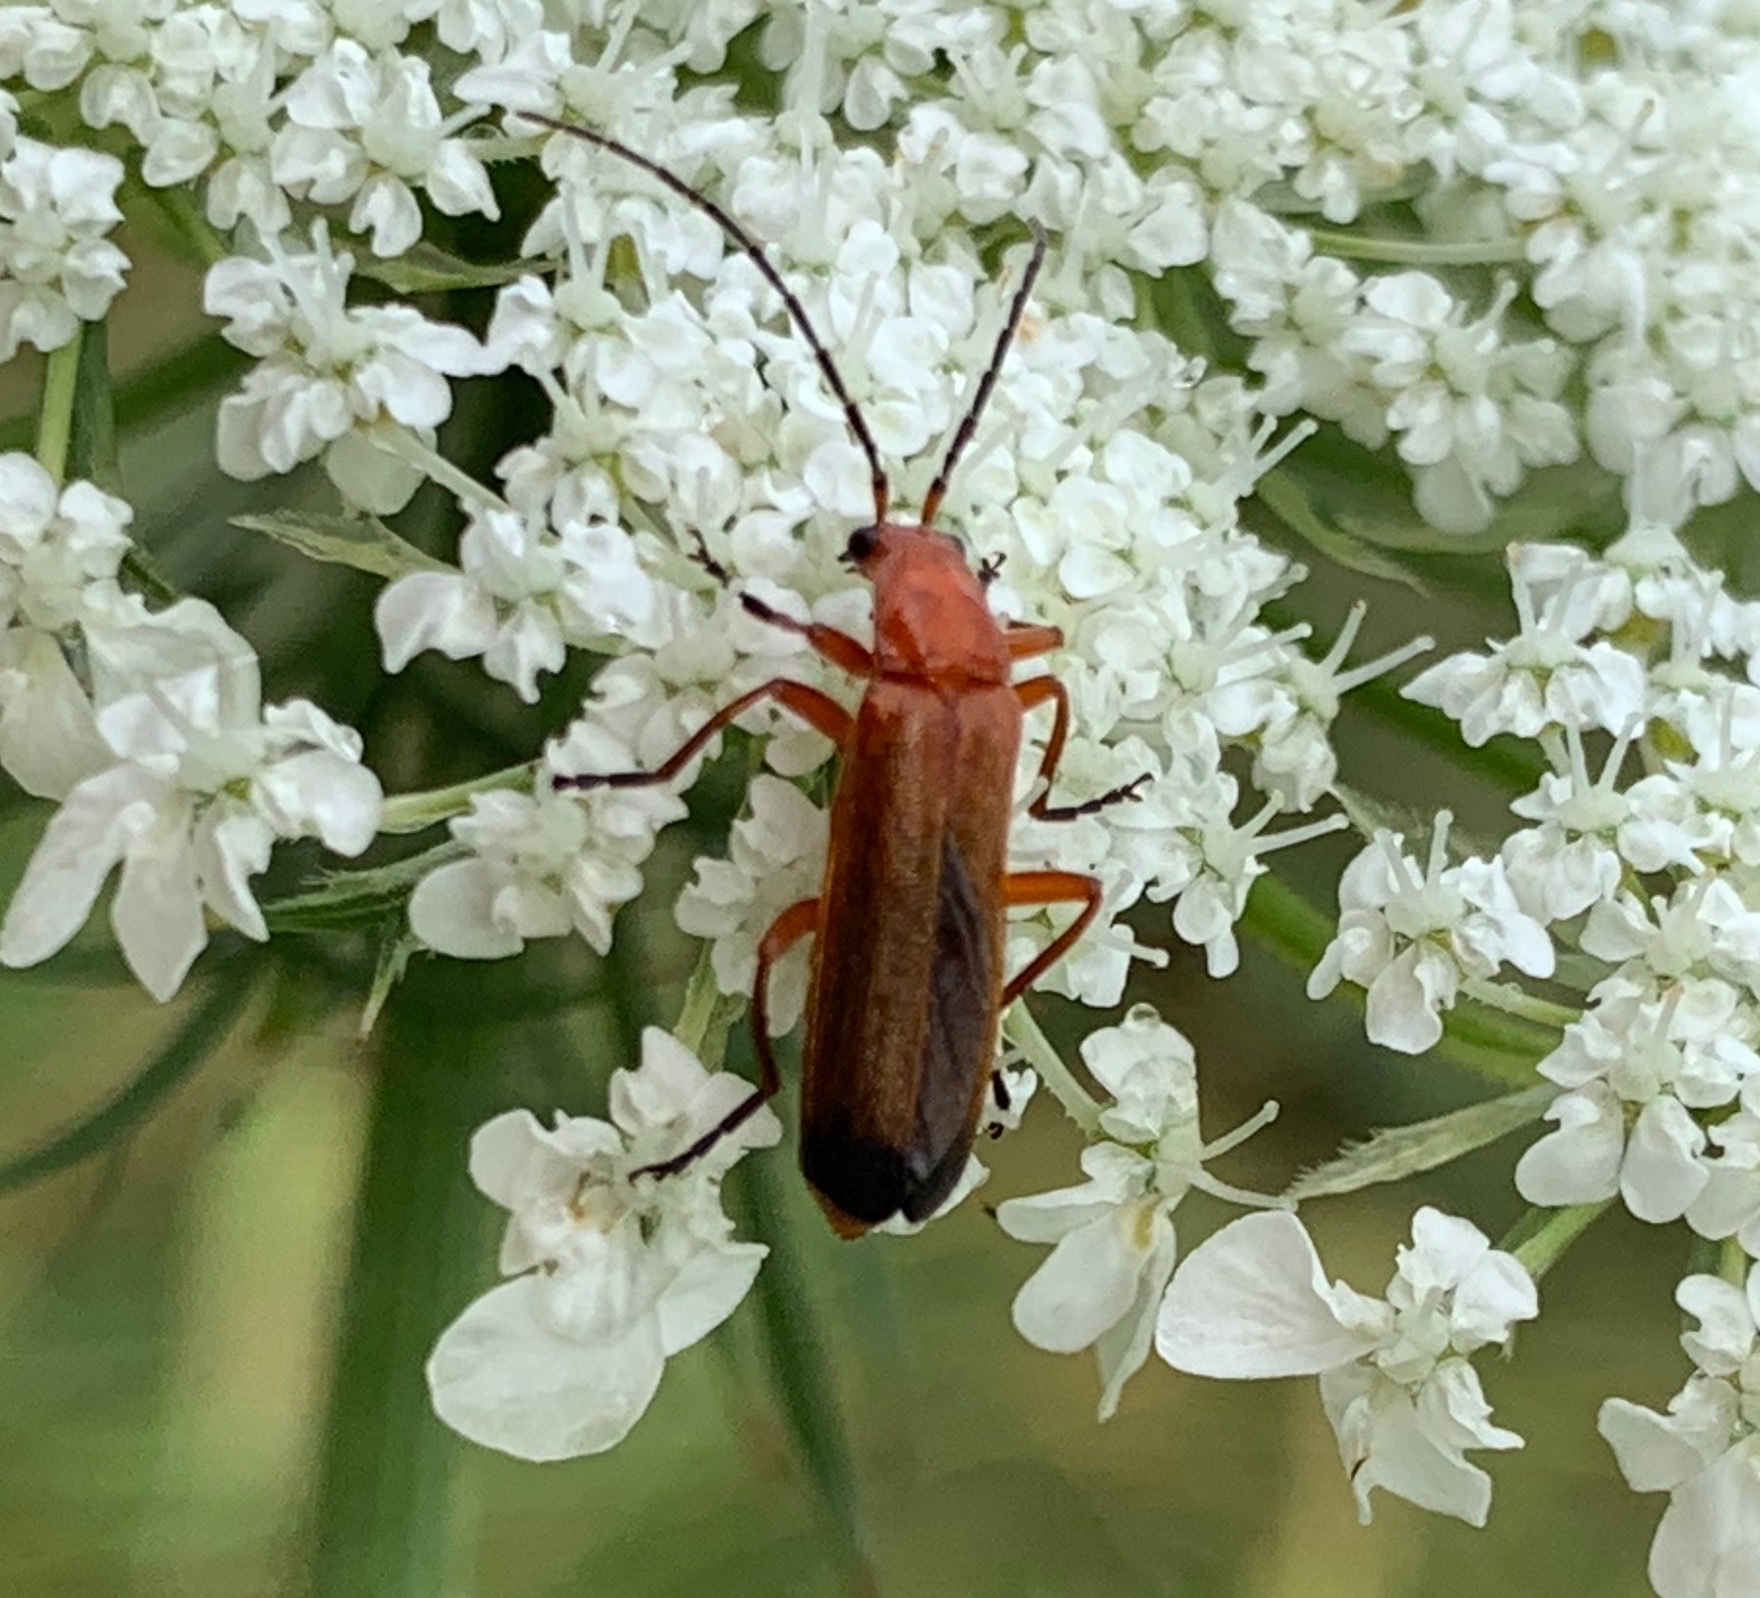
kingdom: Animalia
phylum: Arthropoda
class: Insecta
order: Coleoptera
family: Cantharidae
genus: Rhagonycha
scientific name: Rhagonycha fulva
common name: Common red soldier beetle
